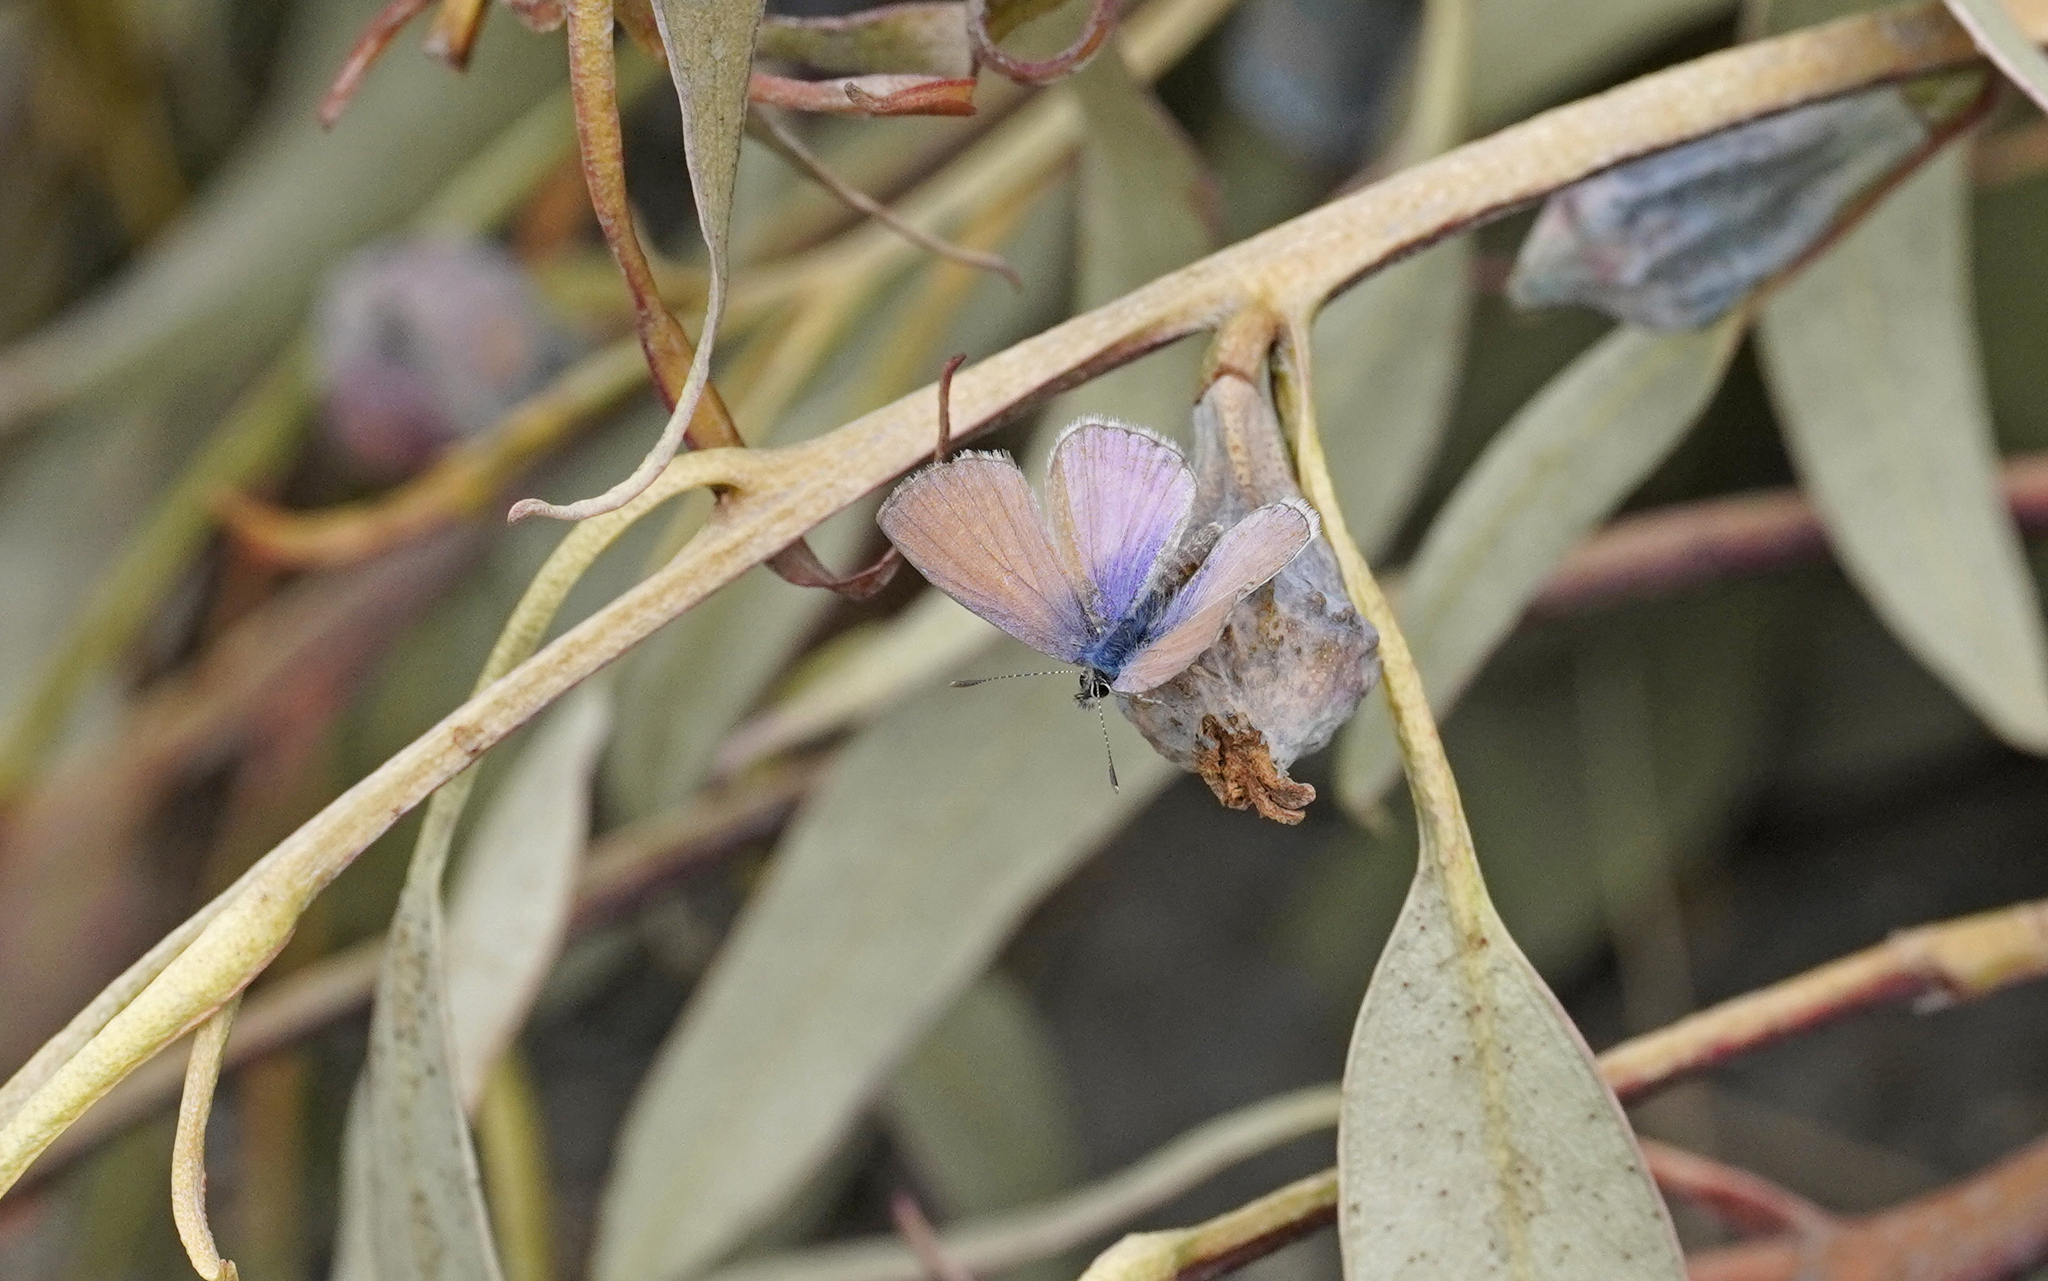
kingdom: Animalia
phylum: Arthropoda
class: Insecta
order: Lepidoptera
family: Lycaenidae
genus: Leptotes
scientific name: Leptotes callanga
